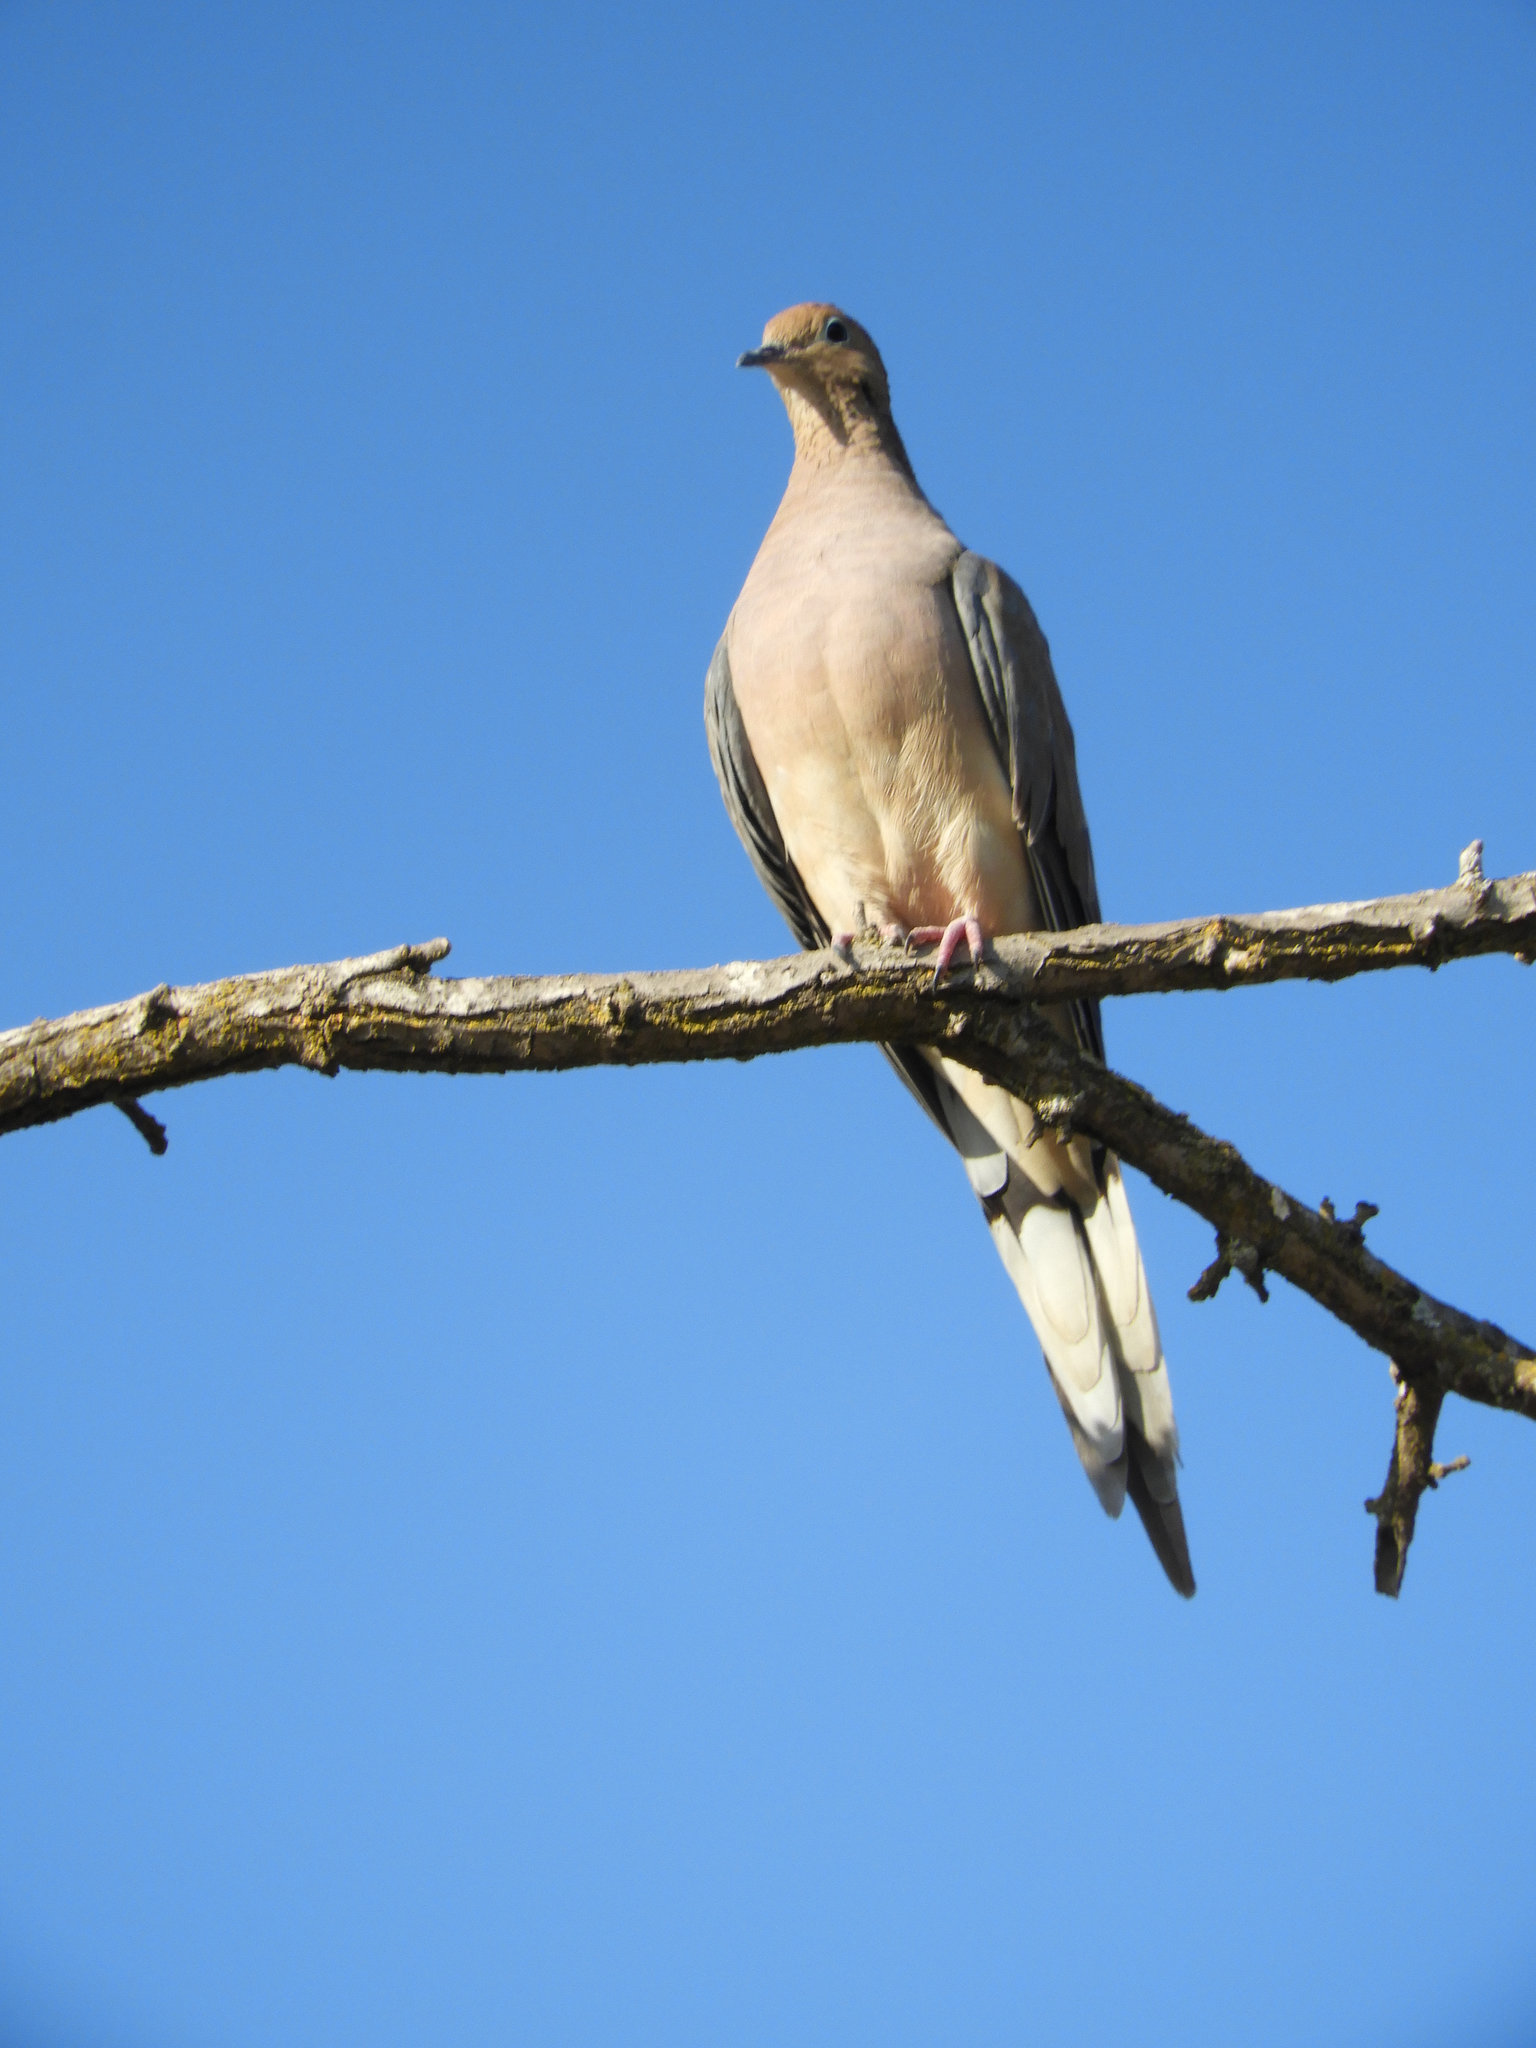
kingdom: Animalia
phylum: Chordata
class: Aves
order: Columbiformes
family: Columbidae
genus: Zenaida
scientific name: Zenaida macroura
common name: Mourning dove
